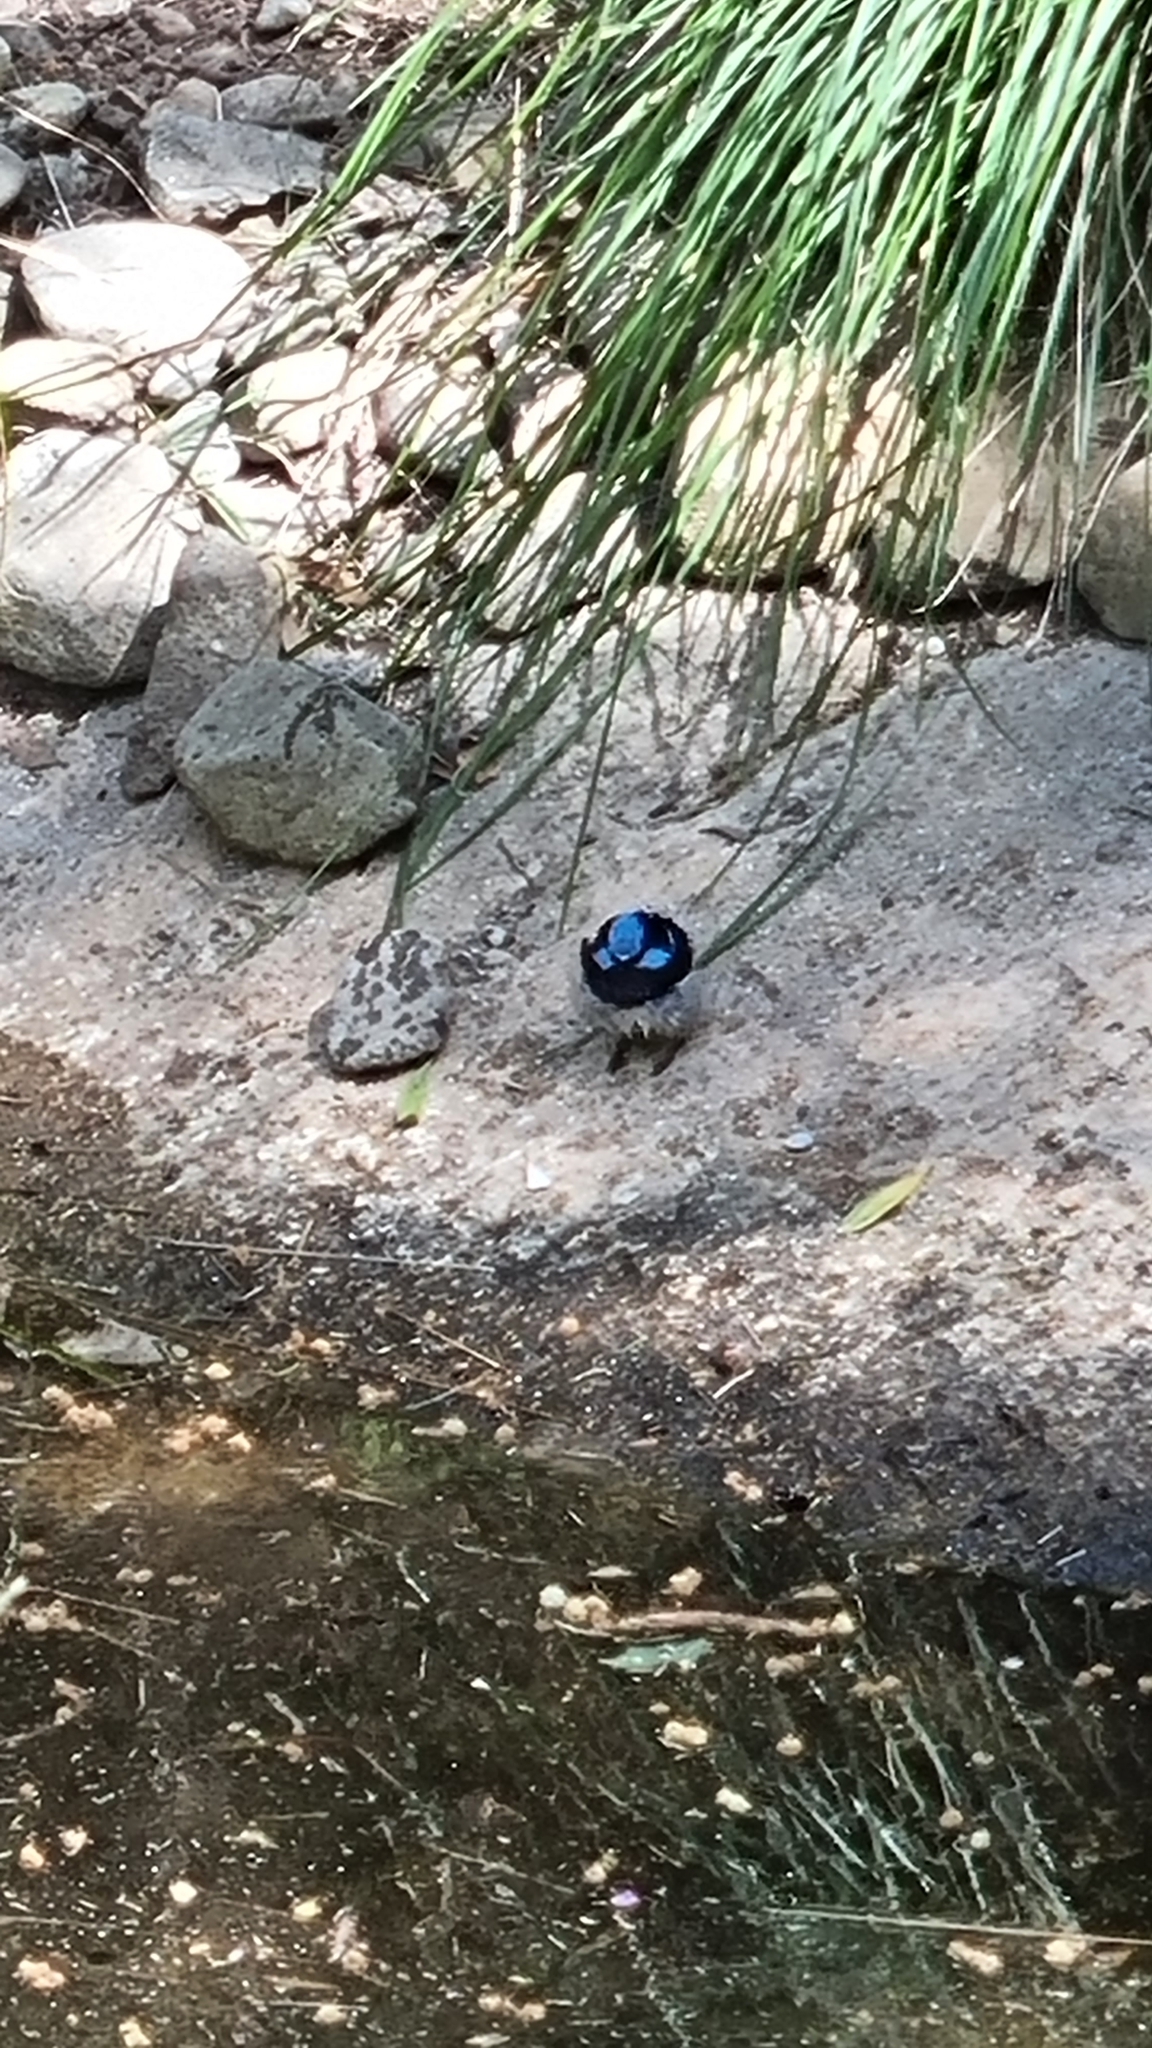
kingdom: Animalia
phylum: Chordata
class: Aves
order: Passeriformes
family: Maluridae
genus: Malurus
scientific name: Malurus cyaneus
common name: Superb fairywren
